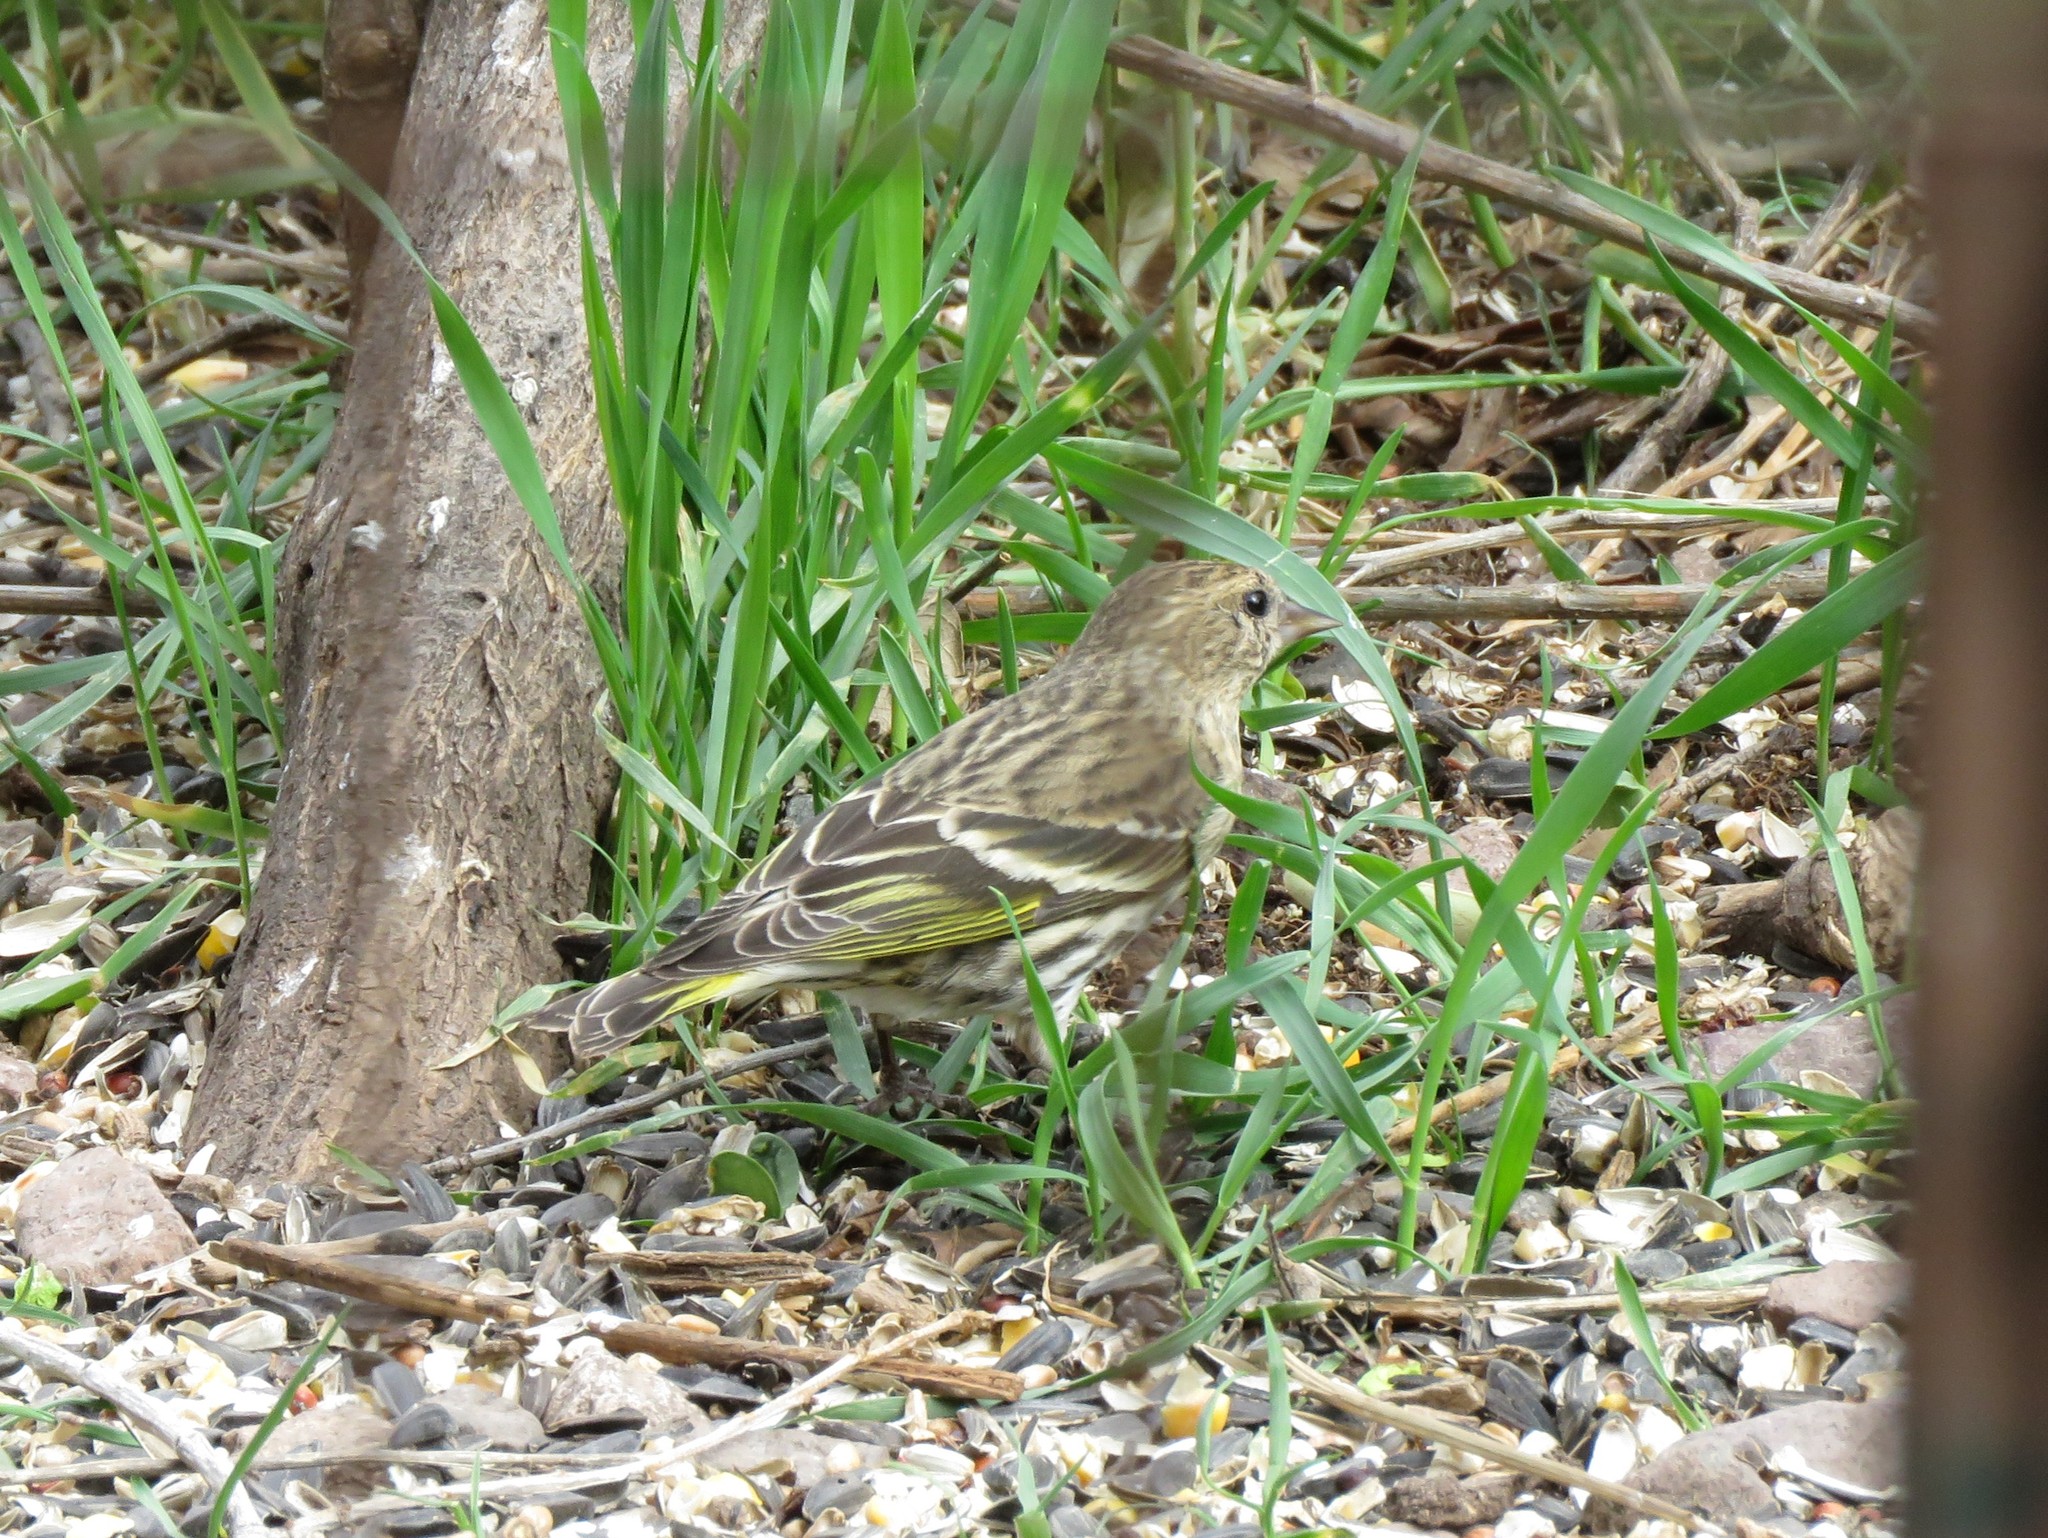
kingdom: Animalia
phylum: Chordata
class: Aves
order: Passeriformes
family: Fringillidae
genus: Spinus
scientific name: Spinus pinus
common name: Pine siskin
